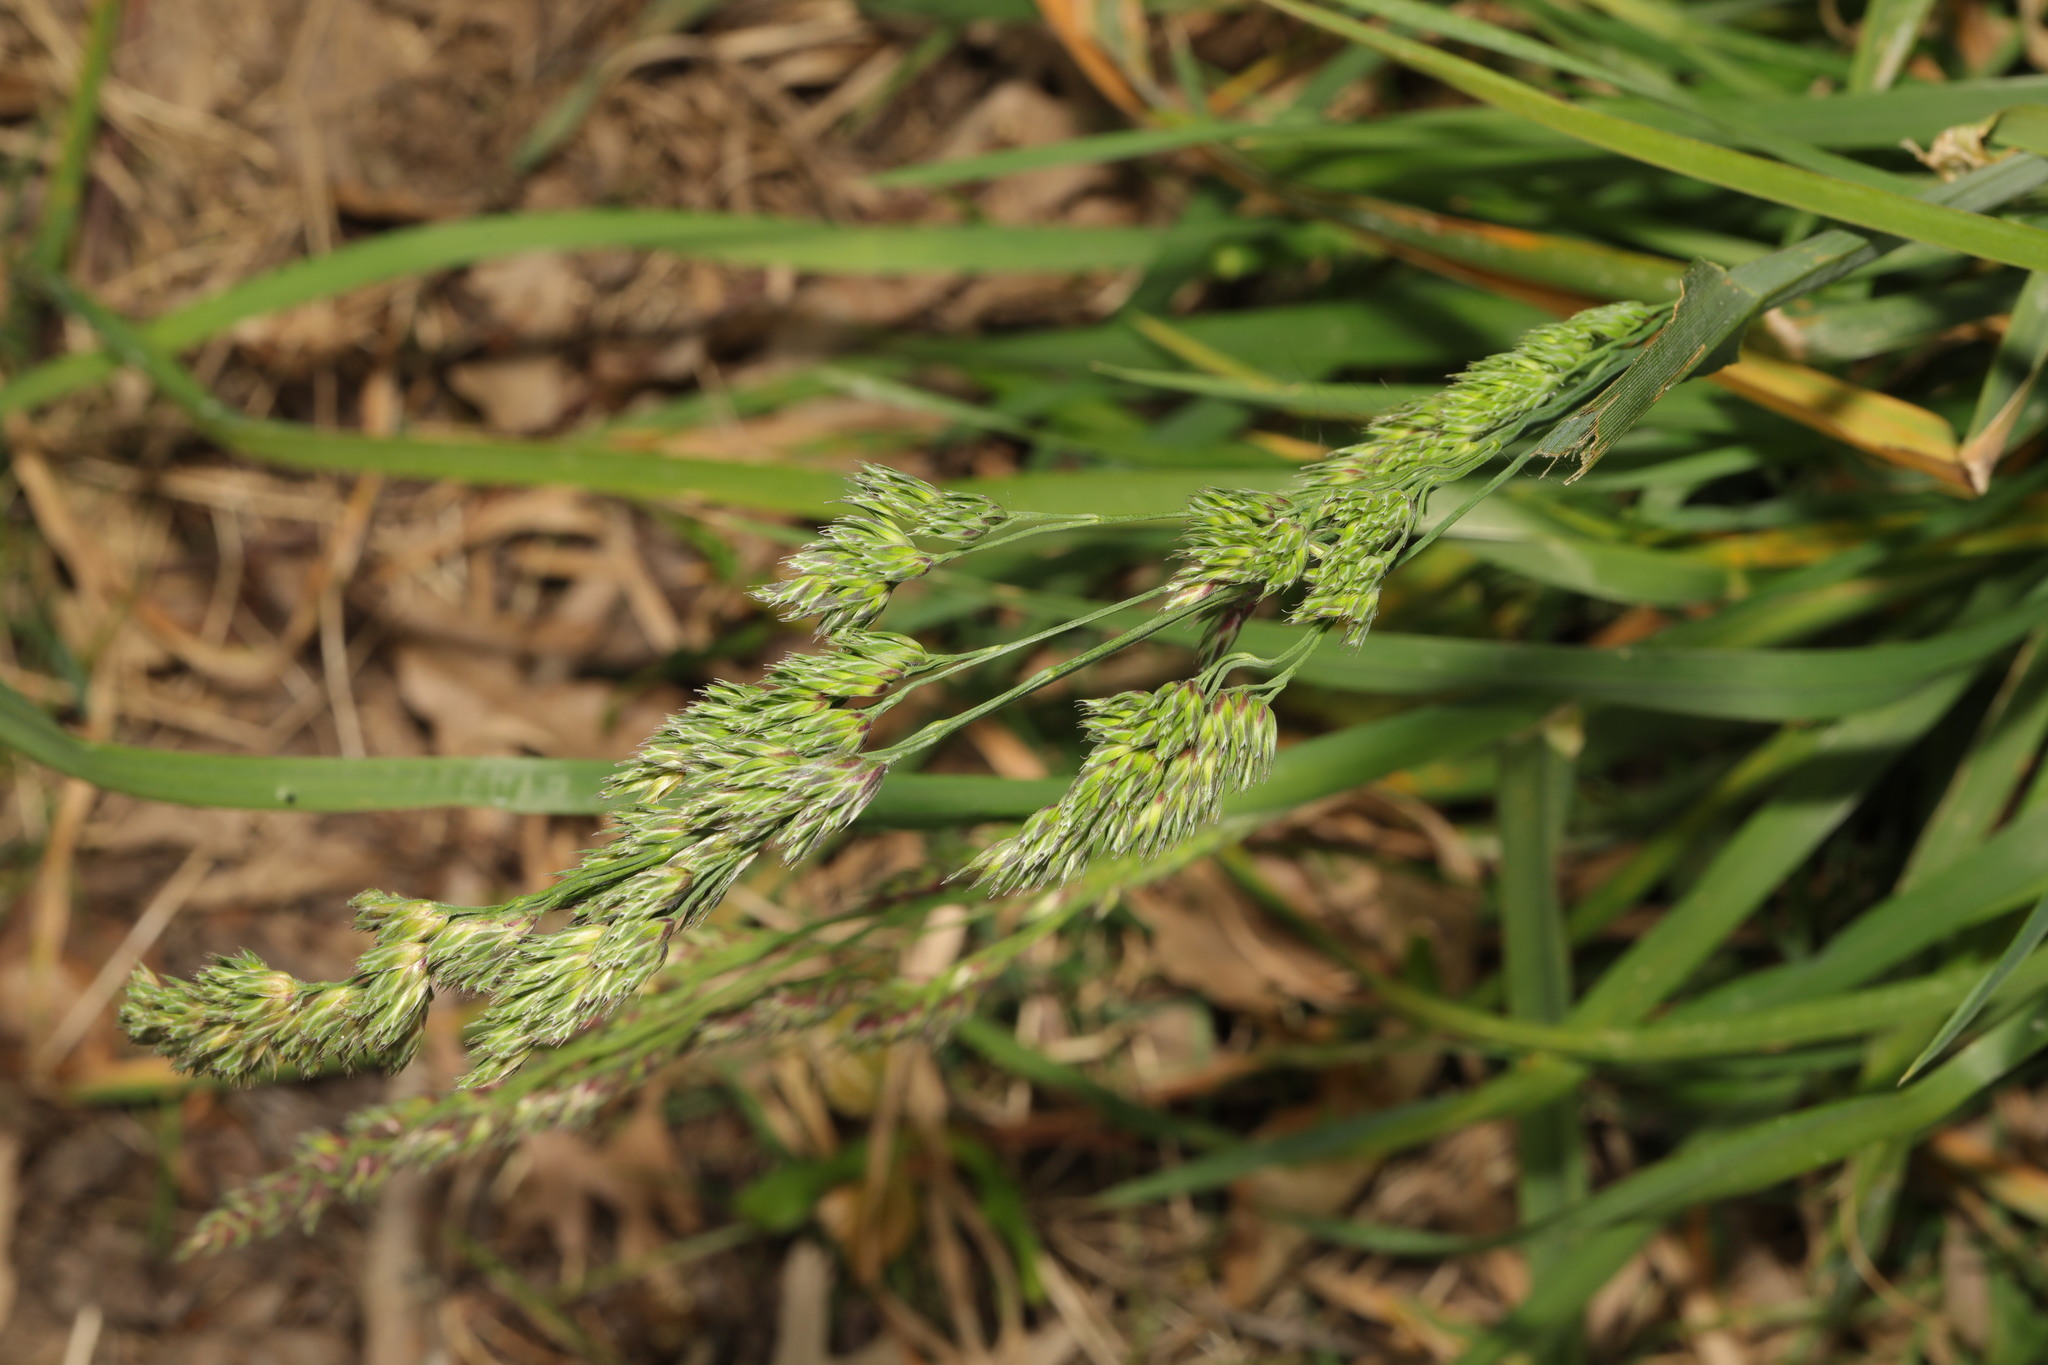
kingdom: Plantae
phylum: Tracheophyta
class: Liliopsida
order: Poales
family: Poaceae
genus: Dactylis
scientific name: Dactylis glomerata
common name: Orchardgrass
